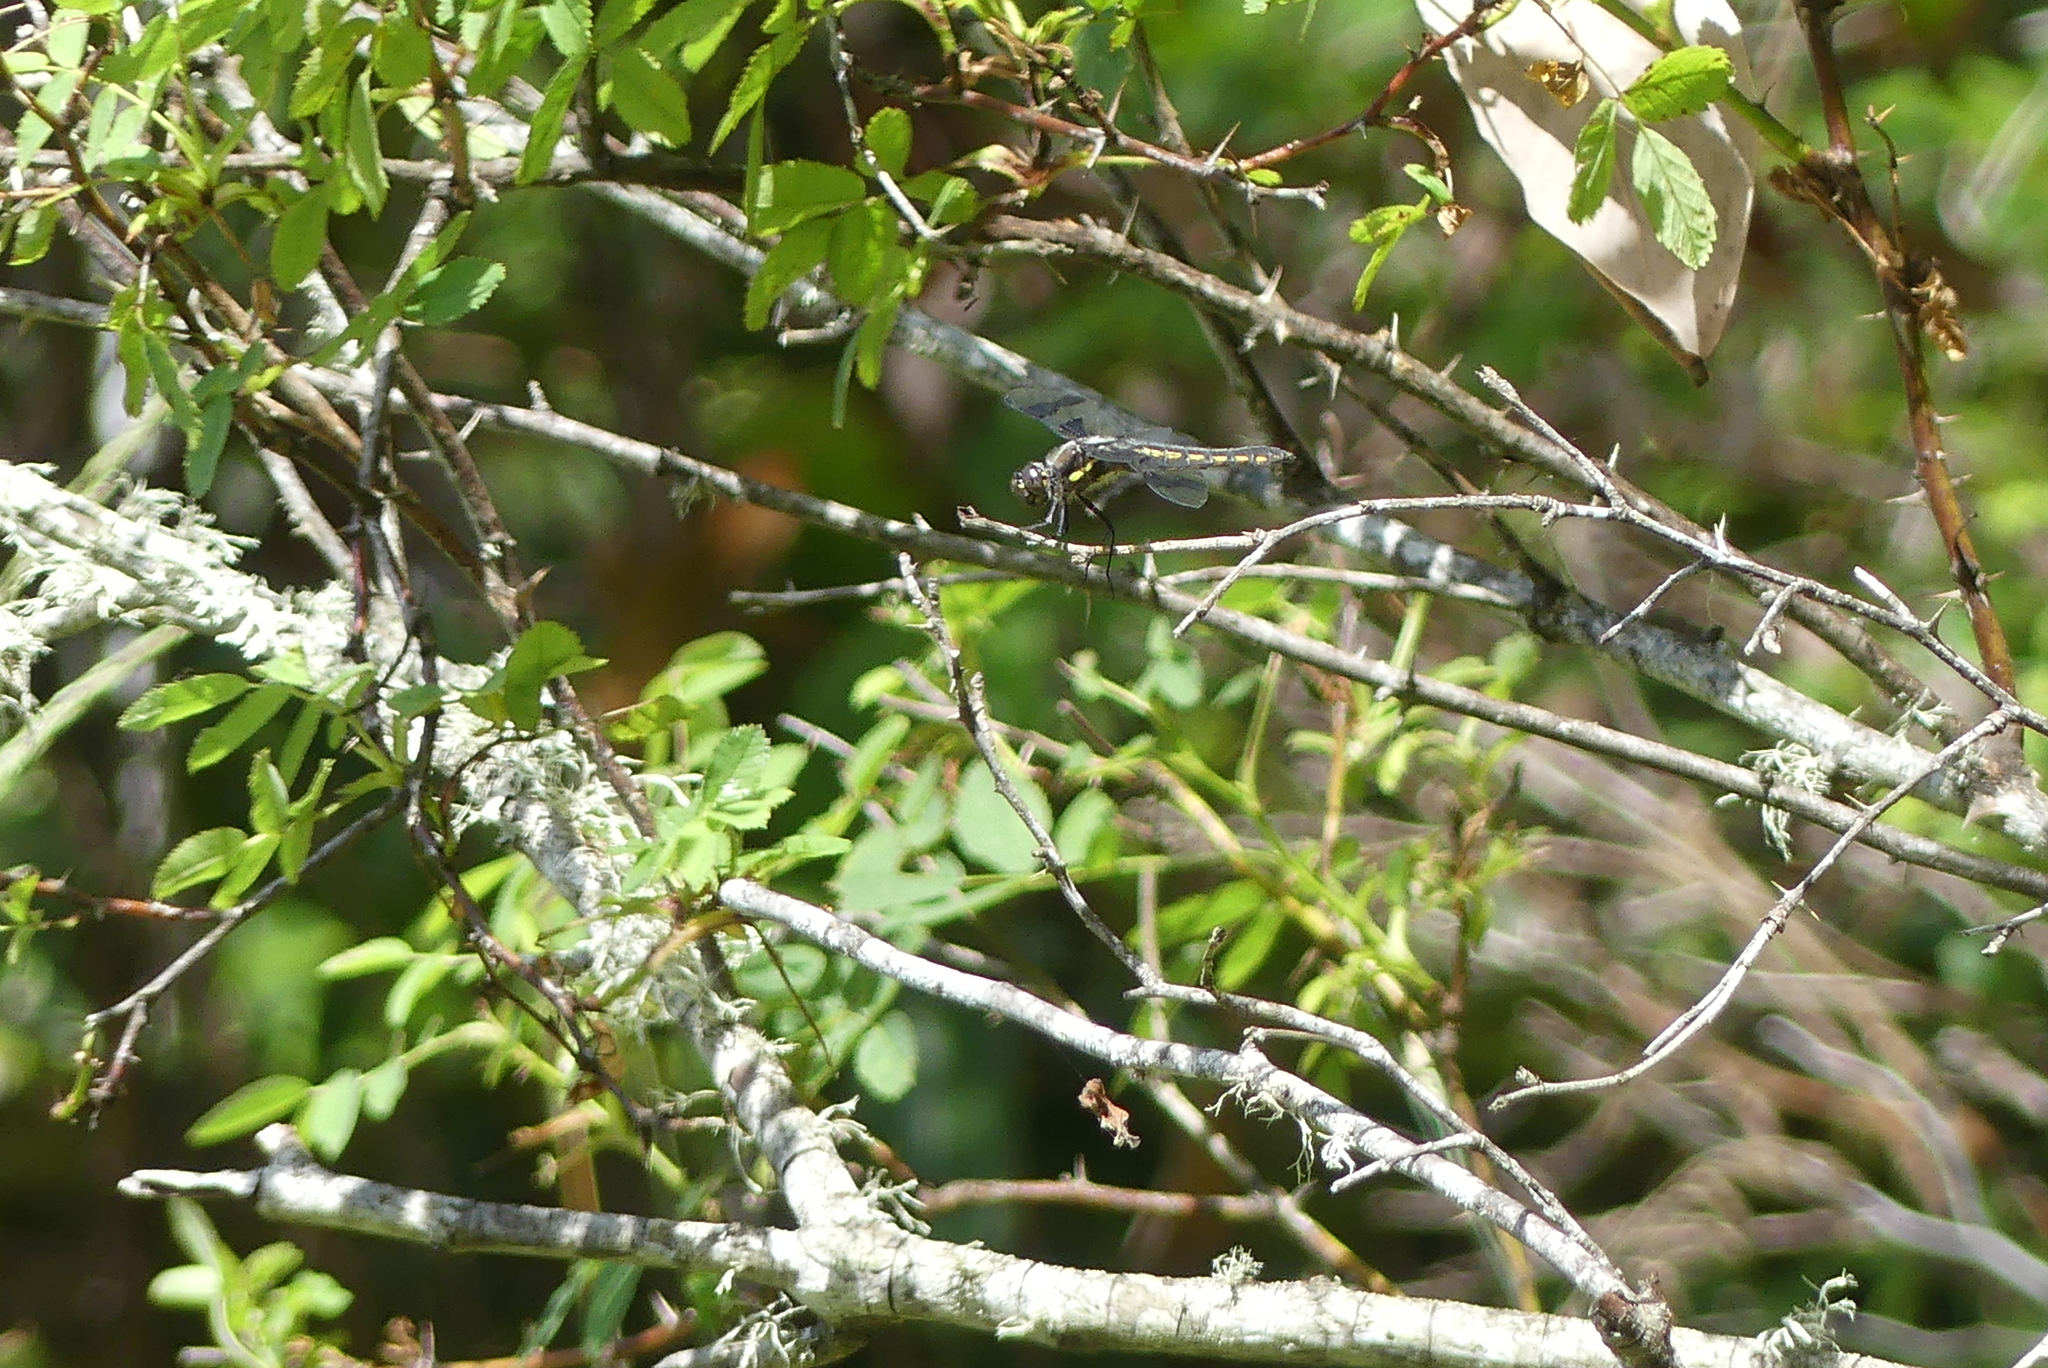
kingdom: Animalia
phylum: Arthropoda
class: Insecta
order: Odonata
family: Libellulidae
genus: Libellula
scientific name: Libellula forensis
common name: Eight-spotted skimmer
